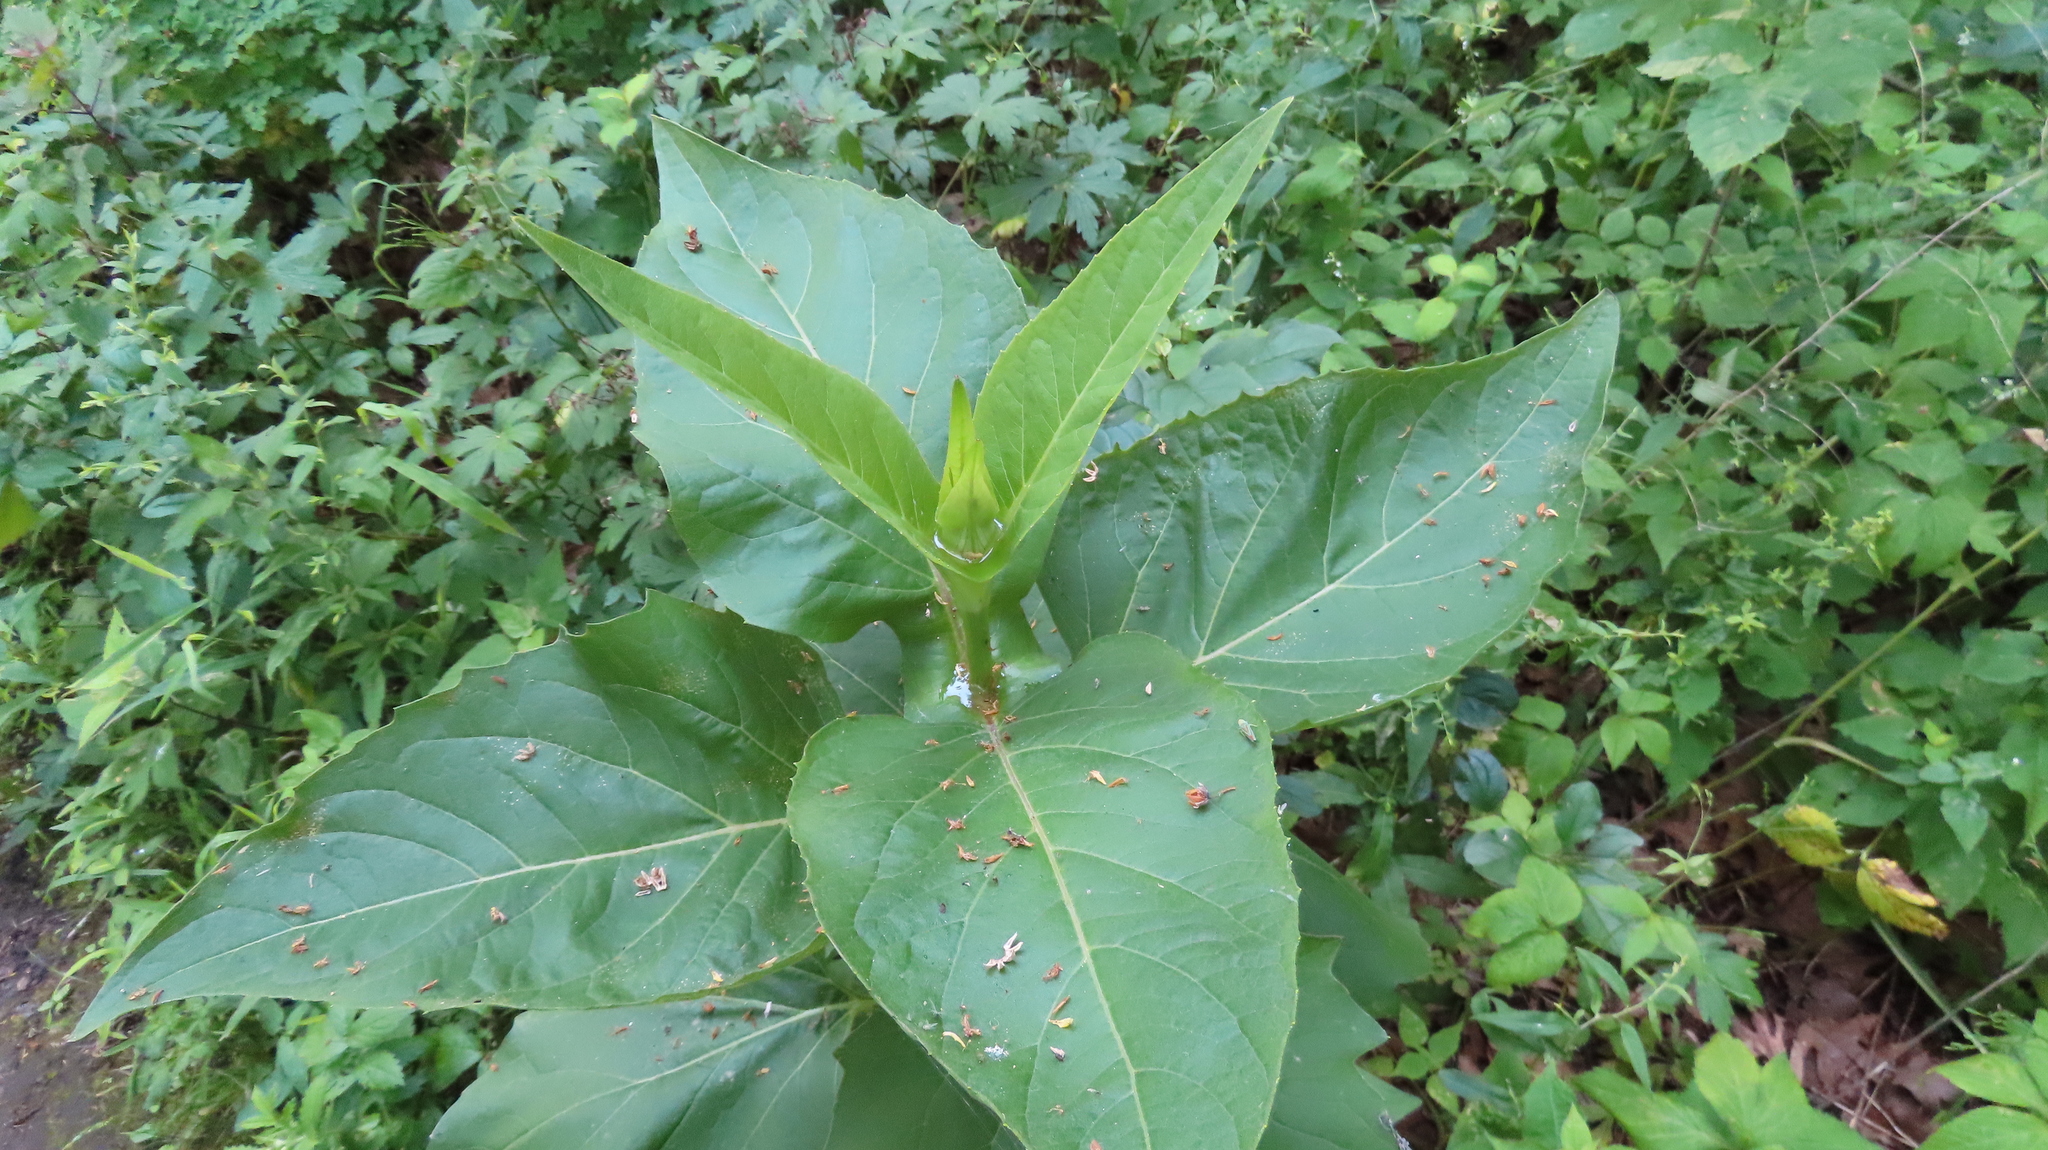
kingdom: Plantae
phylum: Tracheophyta
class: Magnoliopsida
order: Asterales
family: Asteraceae
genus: Silphium
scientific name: Silphium perfoliatum
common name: Cup-plant
